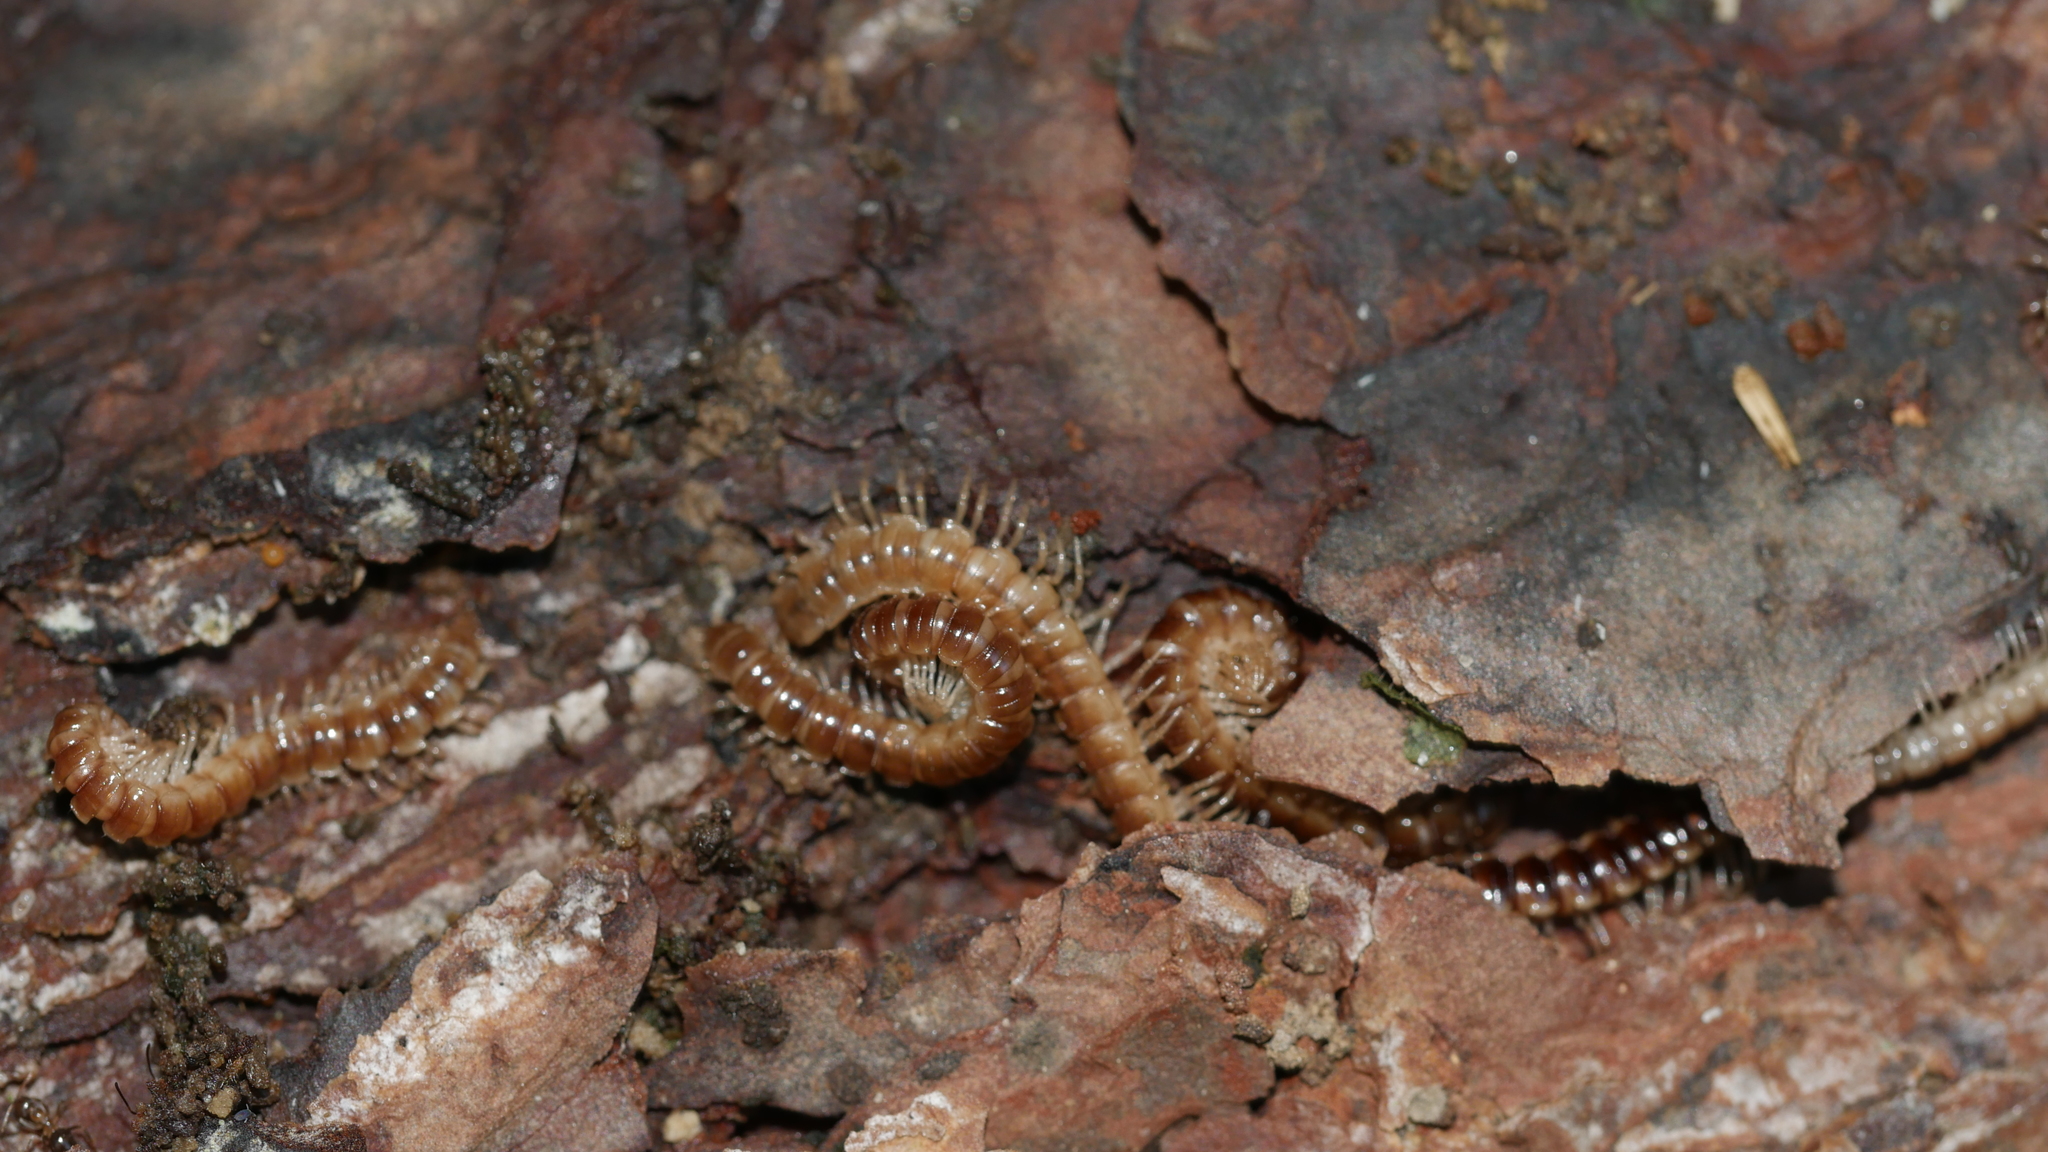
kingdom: Animalia
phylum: Arthropoda
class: Diplopoda
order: Polydesmida
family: Paradoxosomatidae
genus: Oxidus
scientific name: Oxidus gracilis
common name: Greenhouse millipede
